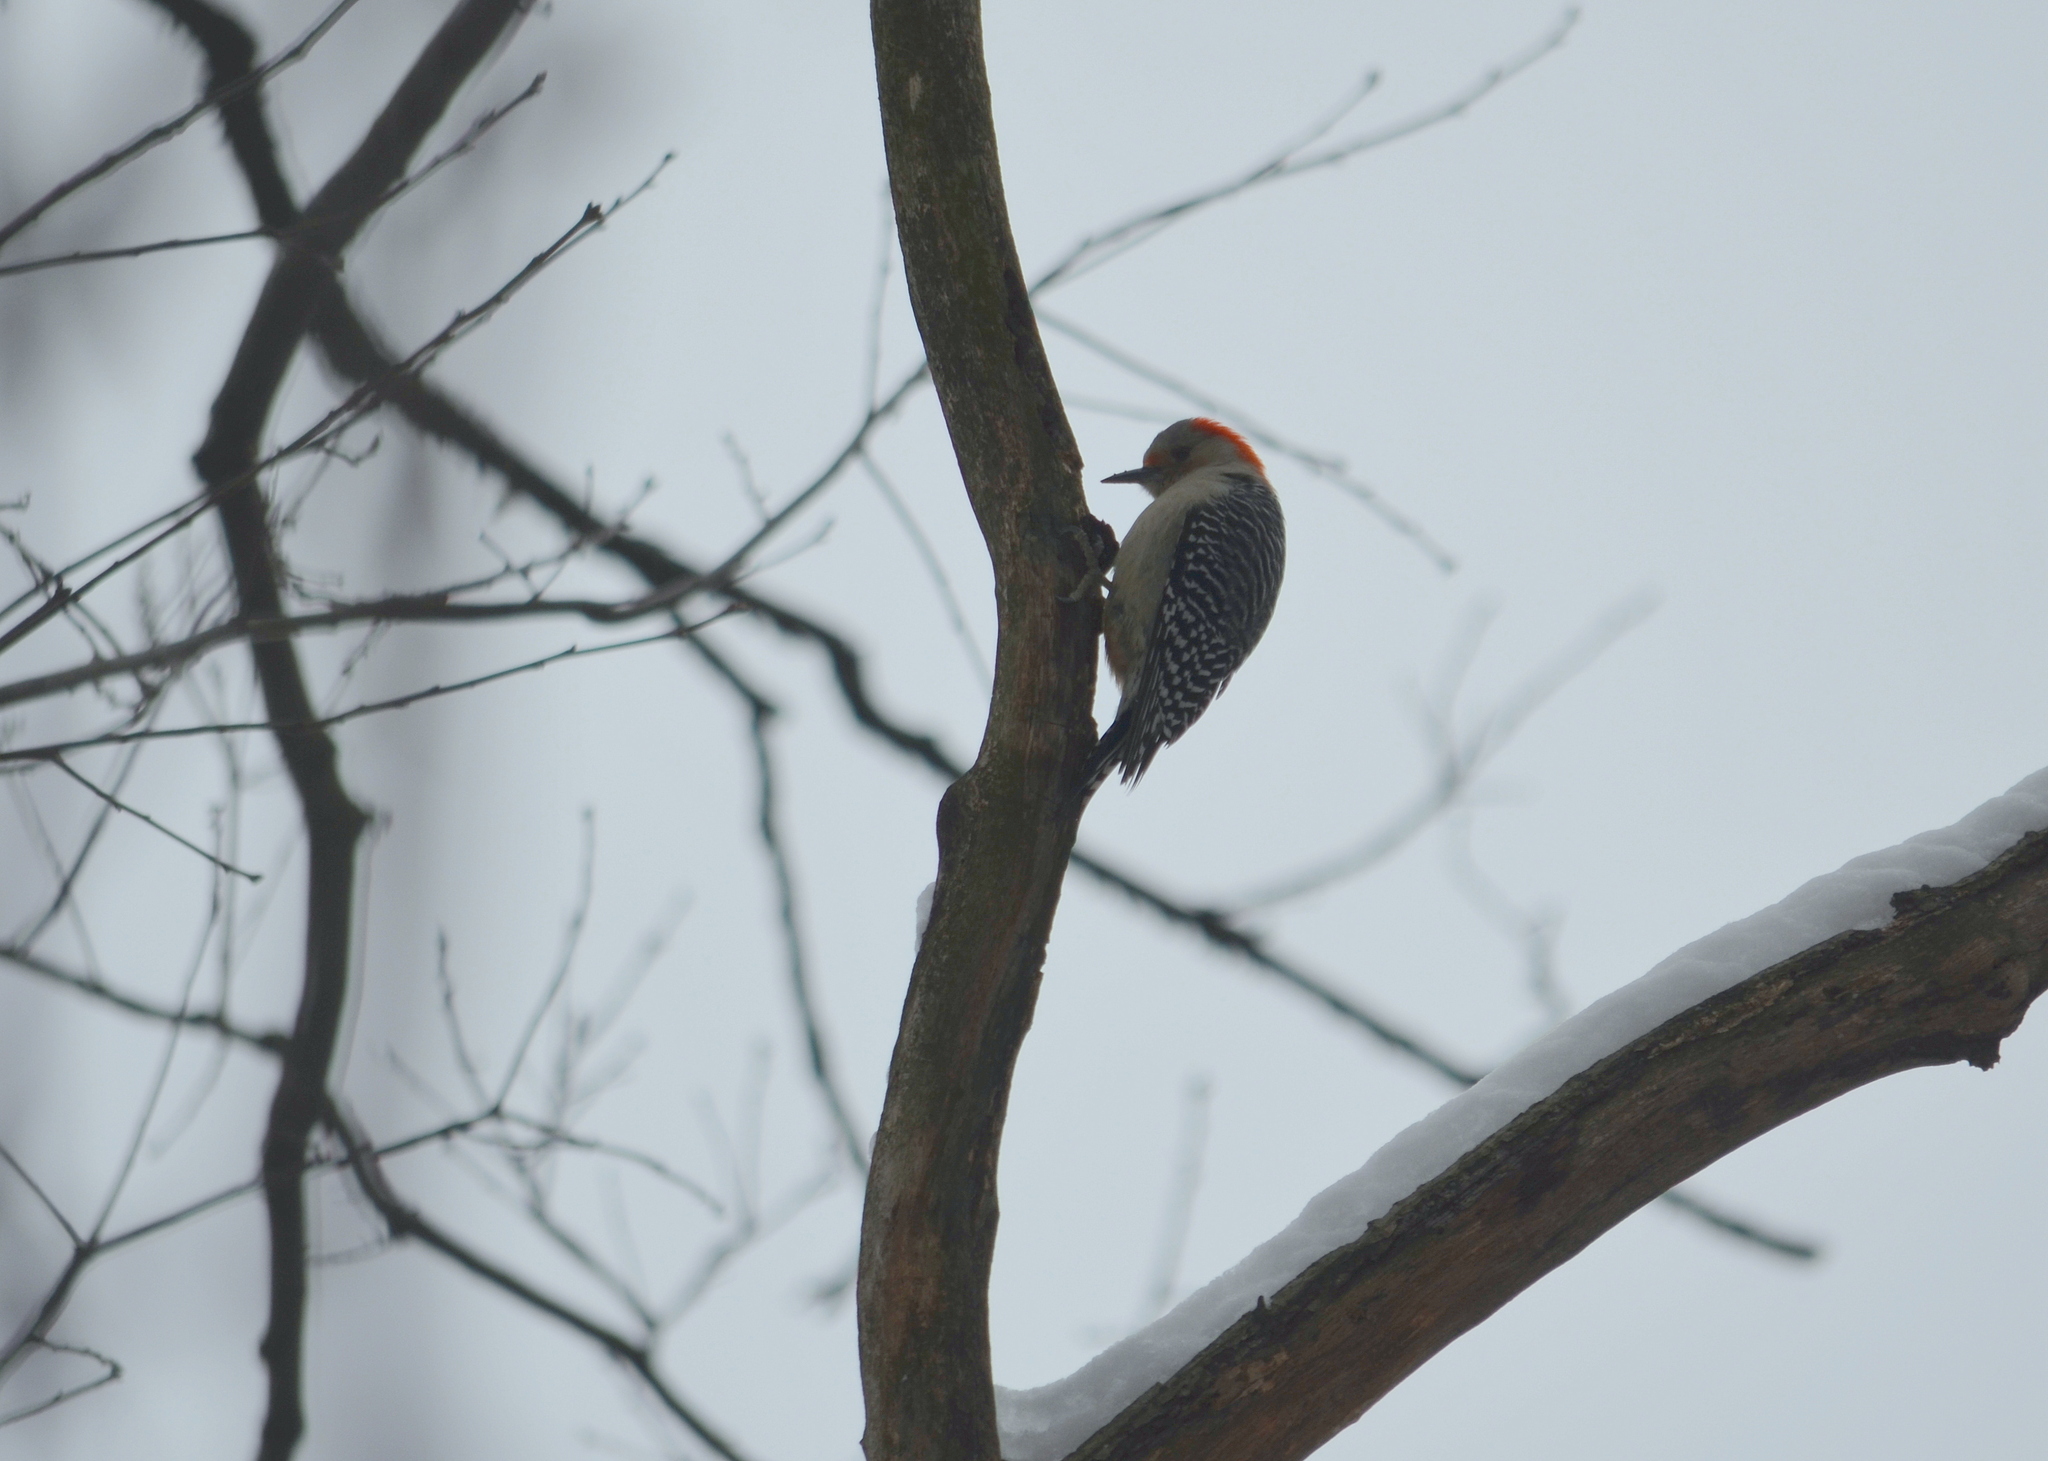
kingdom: Animalia
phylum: Chordata
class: Aves
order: Piciformes
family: Picidae
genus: Melanerpes
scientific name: Melanerpes carolinus
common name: Red-bellied woodpecker
